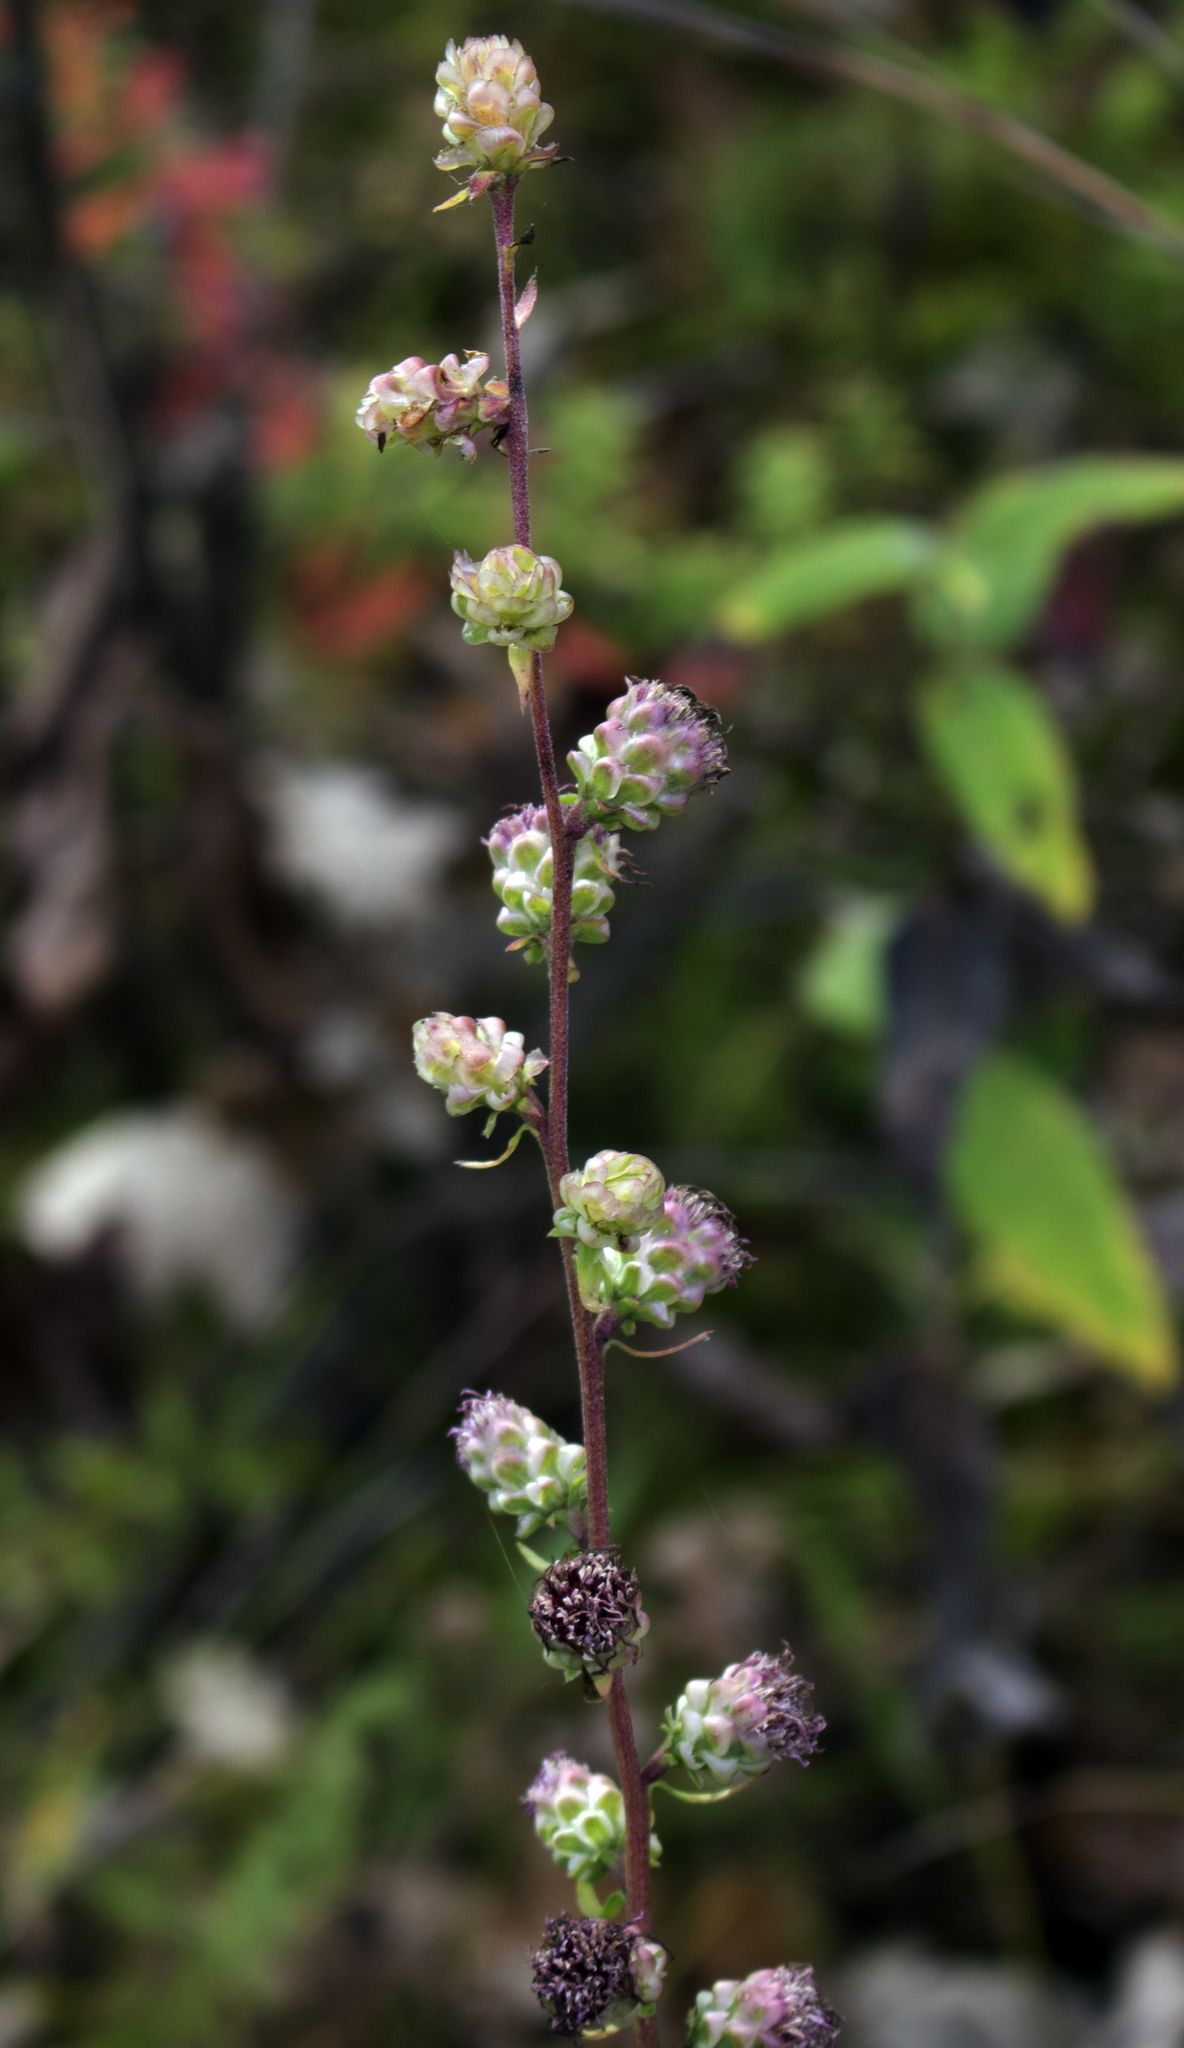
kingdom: Plantae
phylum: Tracheophyta
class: Magnoliopsida
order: Asterales
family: Asteraceae
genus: Liatris
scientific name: Liatris aspera
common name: Lacerate blazing-star
